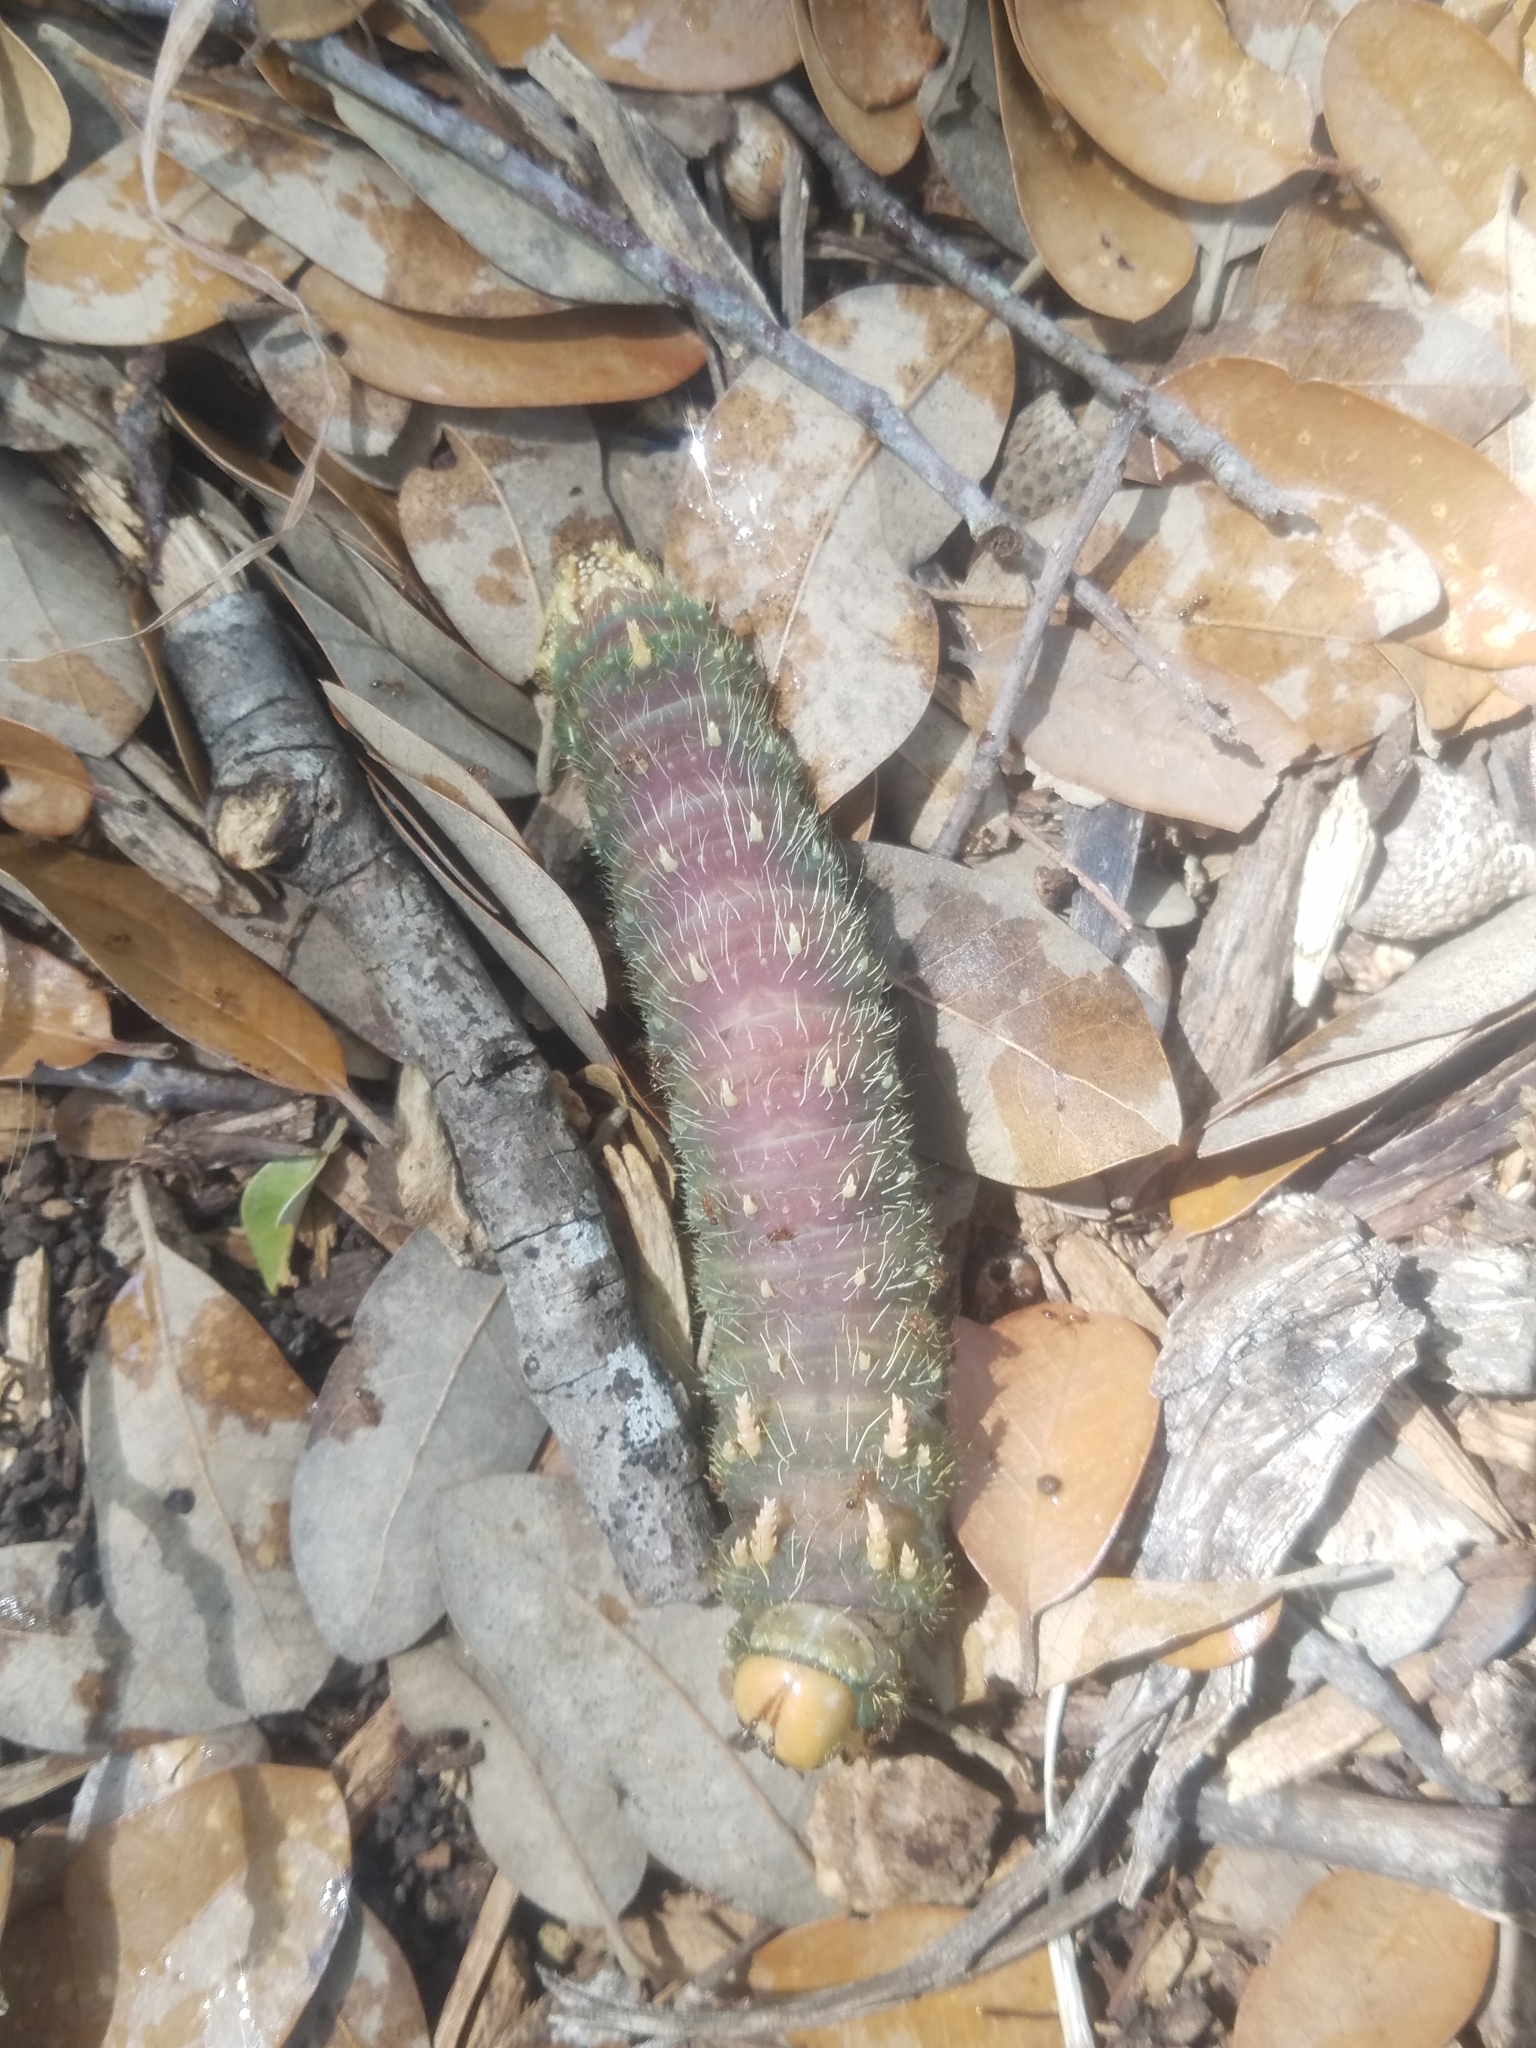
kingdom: Animalia
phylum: Arthropoda
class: Insecta
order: Lepidoptera
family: Saturniidae
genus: Eacles
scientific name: Eacles imperialis
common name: Imperial moth
